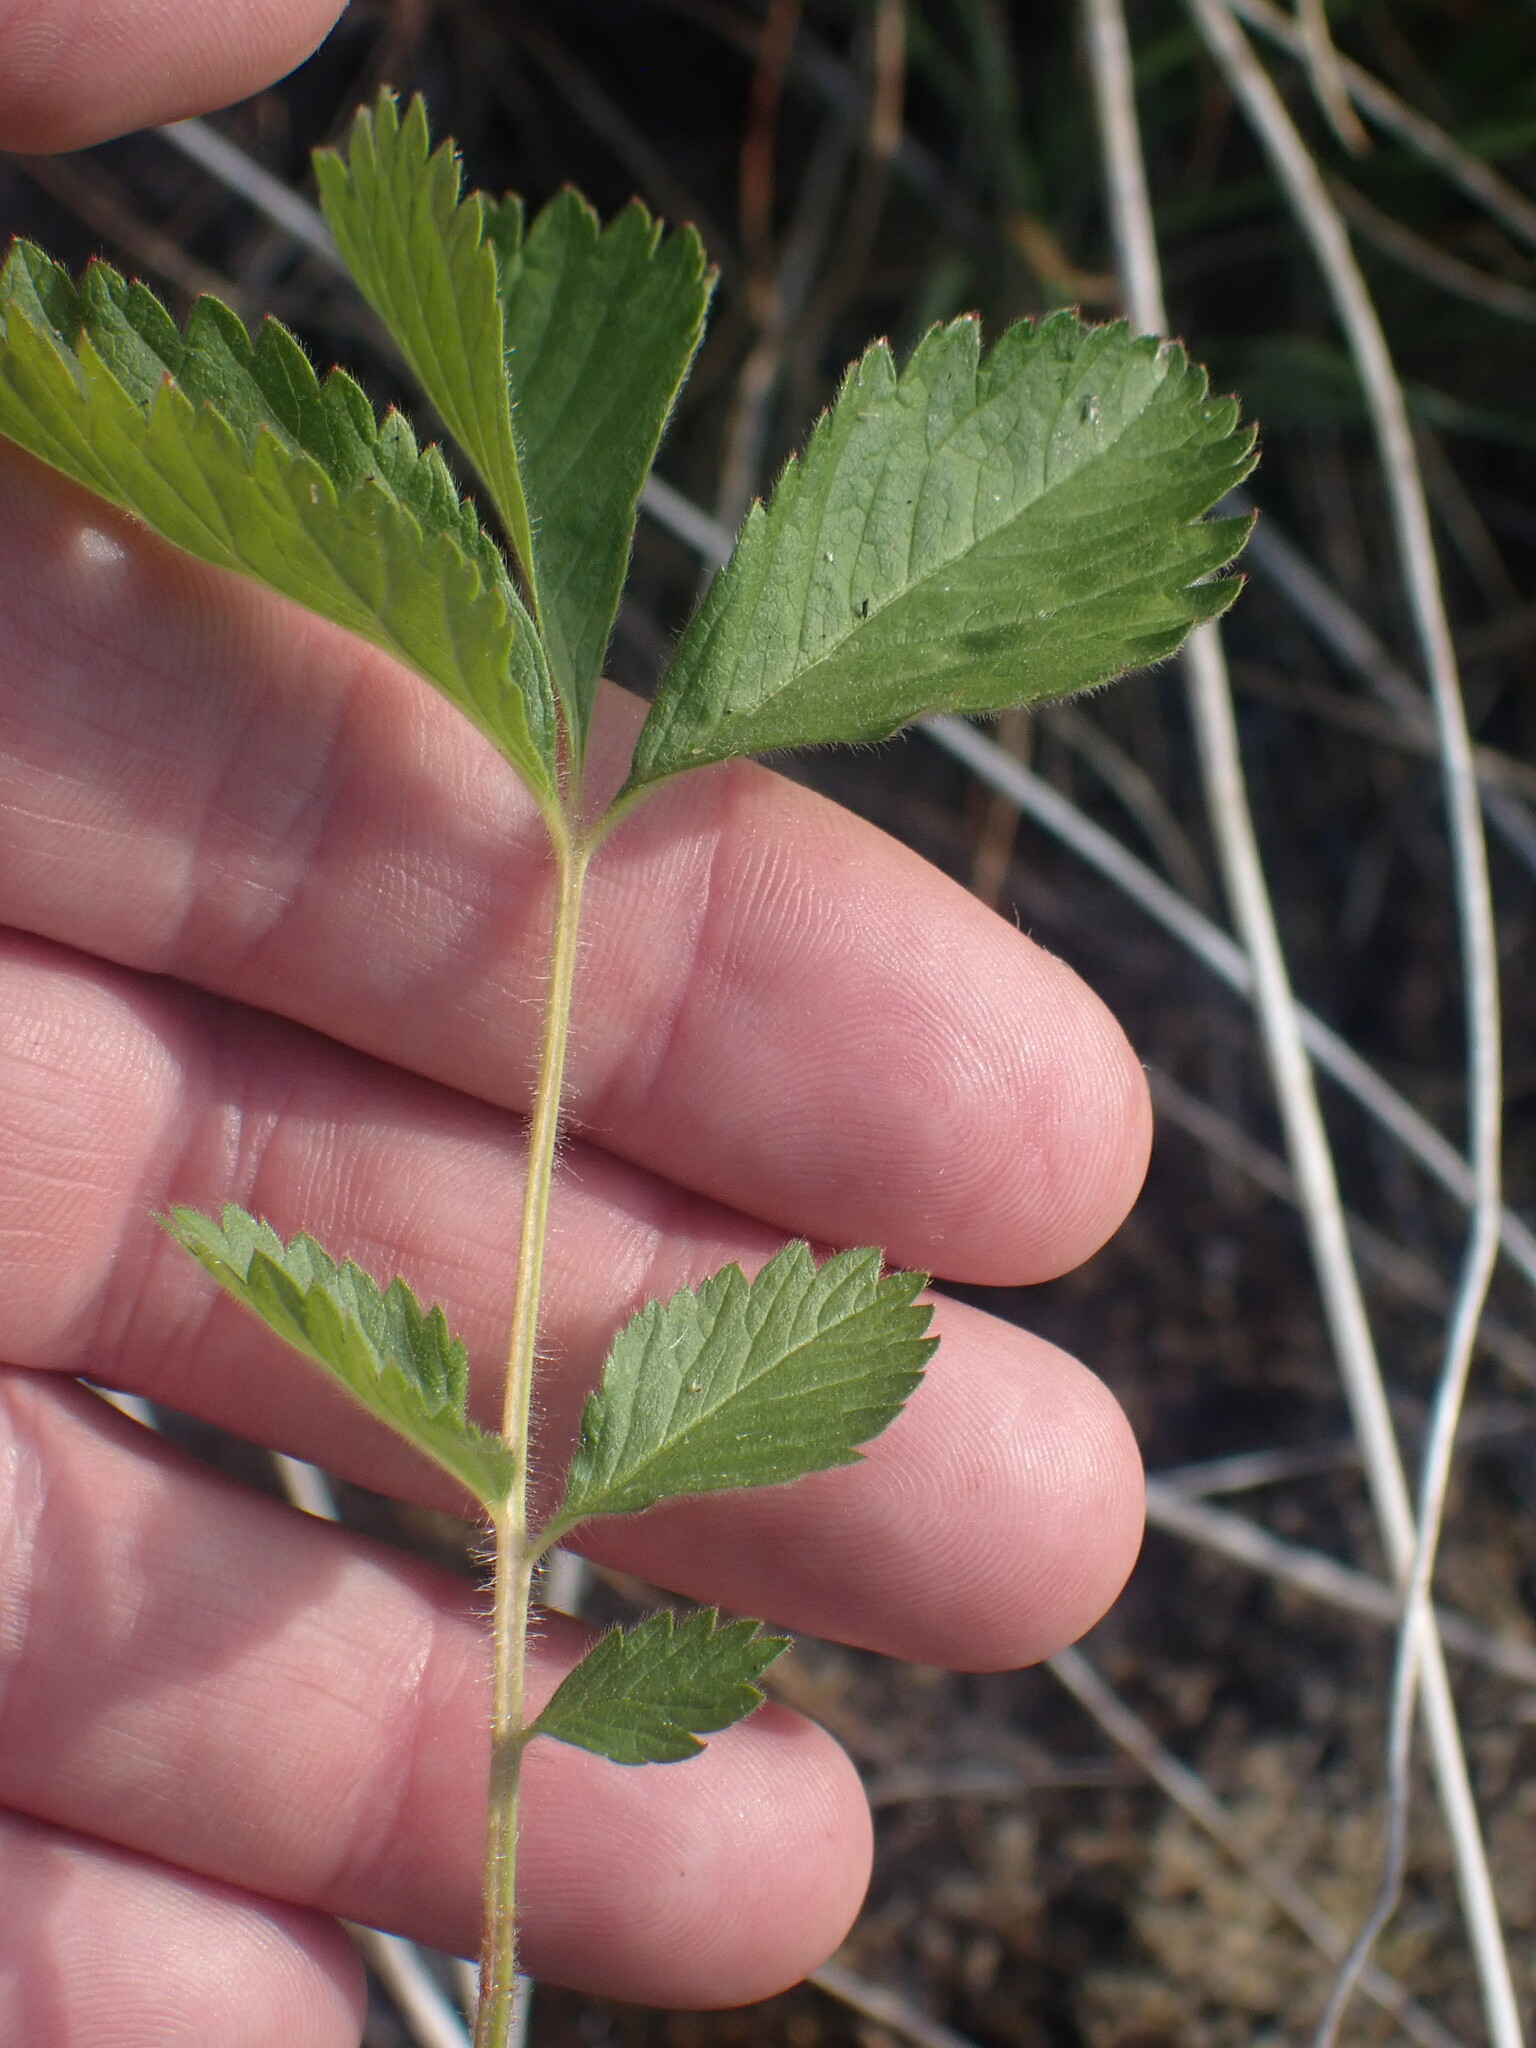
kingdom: Plantae
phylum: Tracheophyta
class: Magnoliopsida
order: Rosales
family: Rosaceae
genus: Drymocallis
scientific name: Drymocallis glandulosa
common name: Sticky cinquefoil
